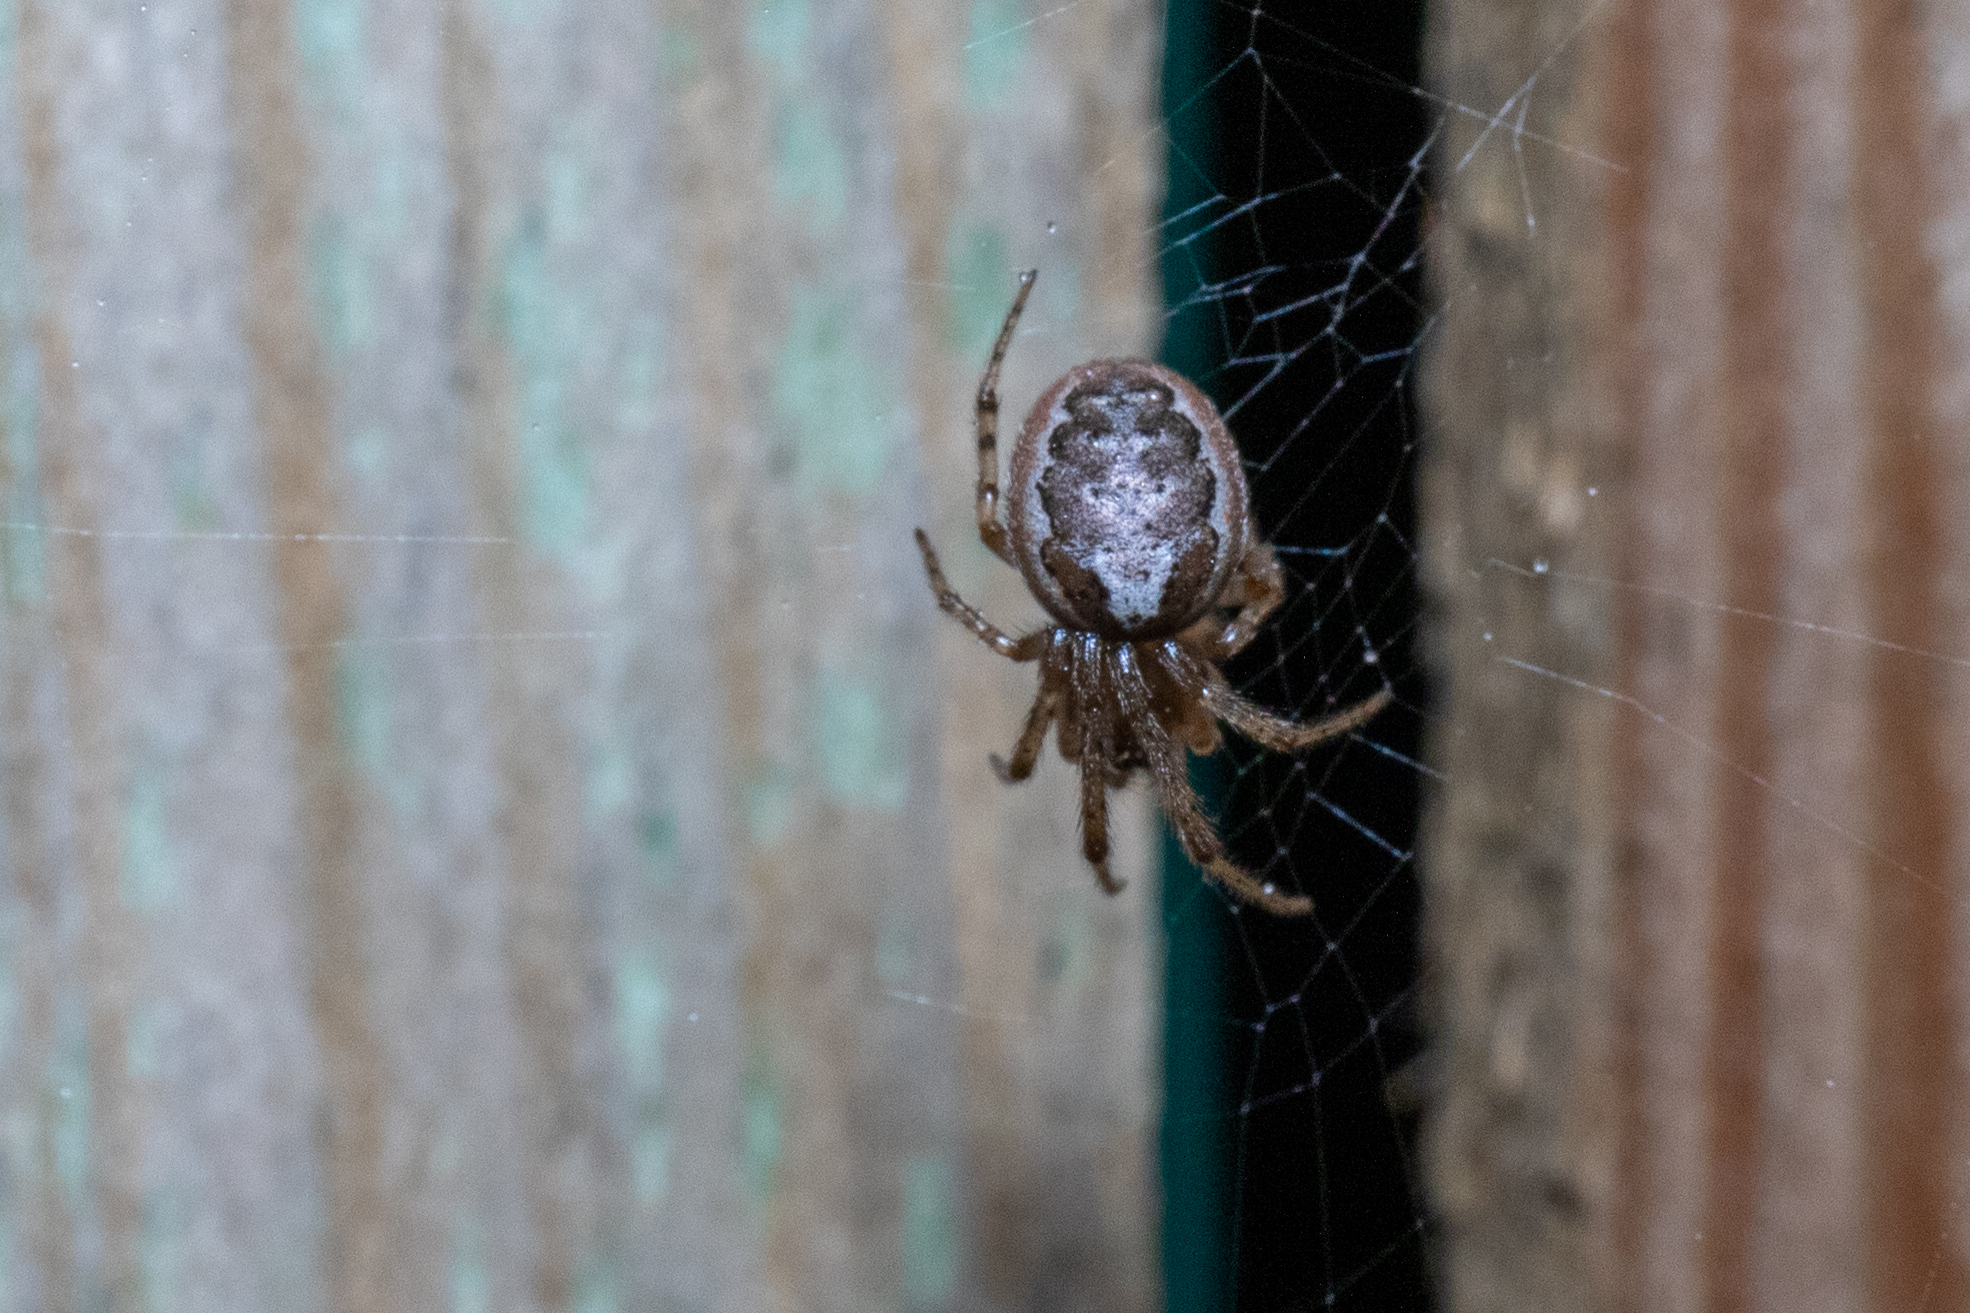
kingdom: Animalia
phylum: Arthropoda
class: Arachnida
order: Araneae
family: Araneidae
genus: Zygiella
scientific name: Zygiella x-notata
